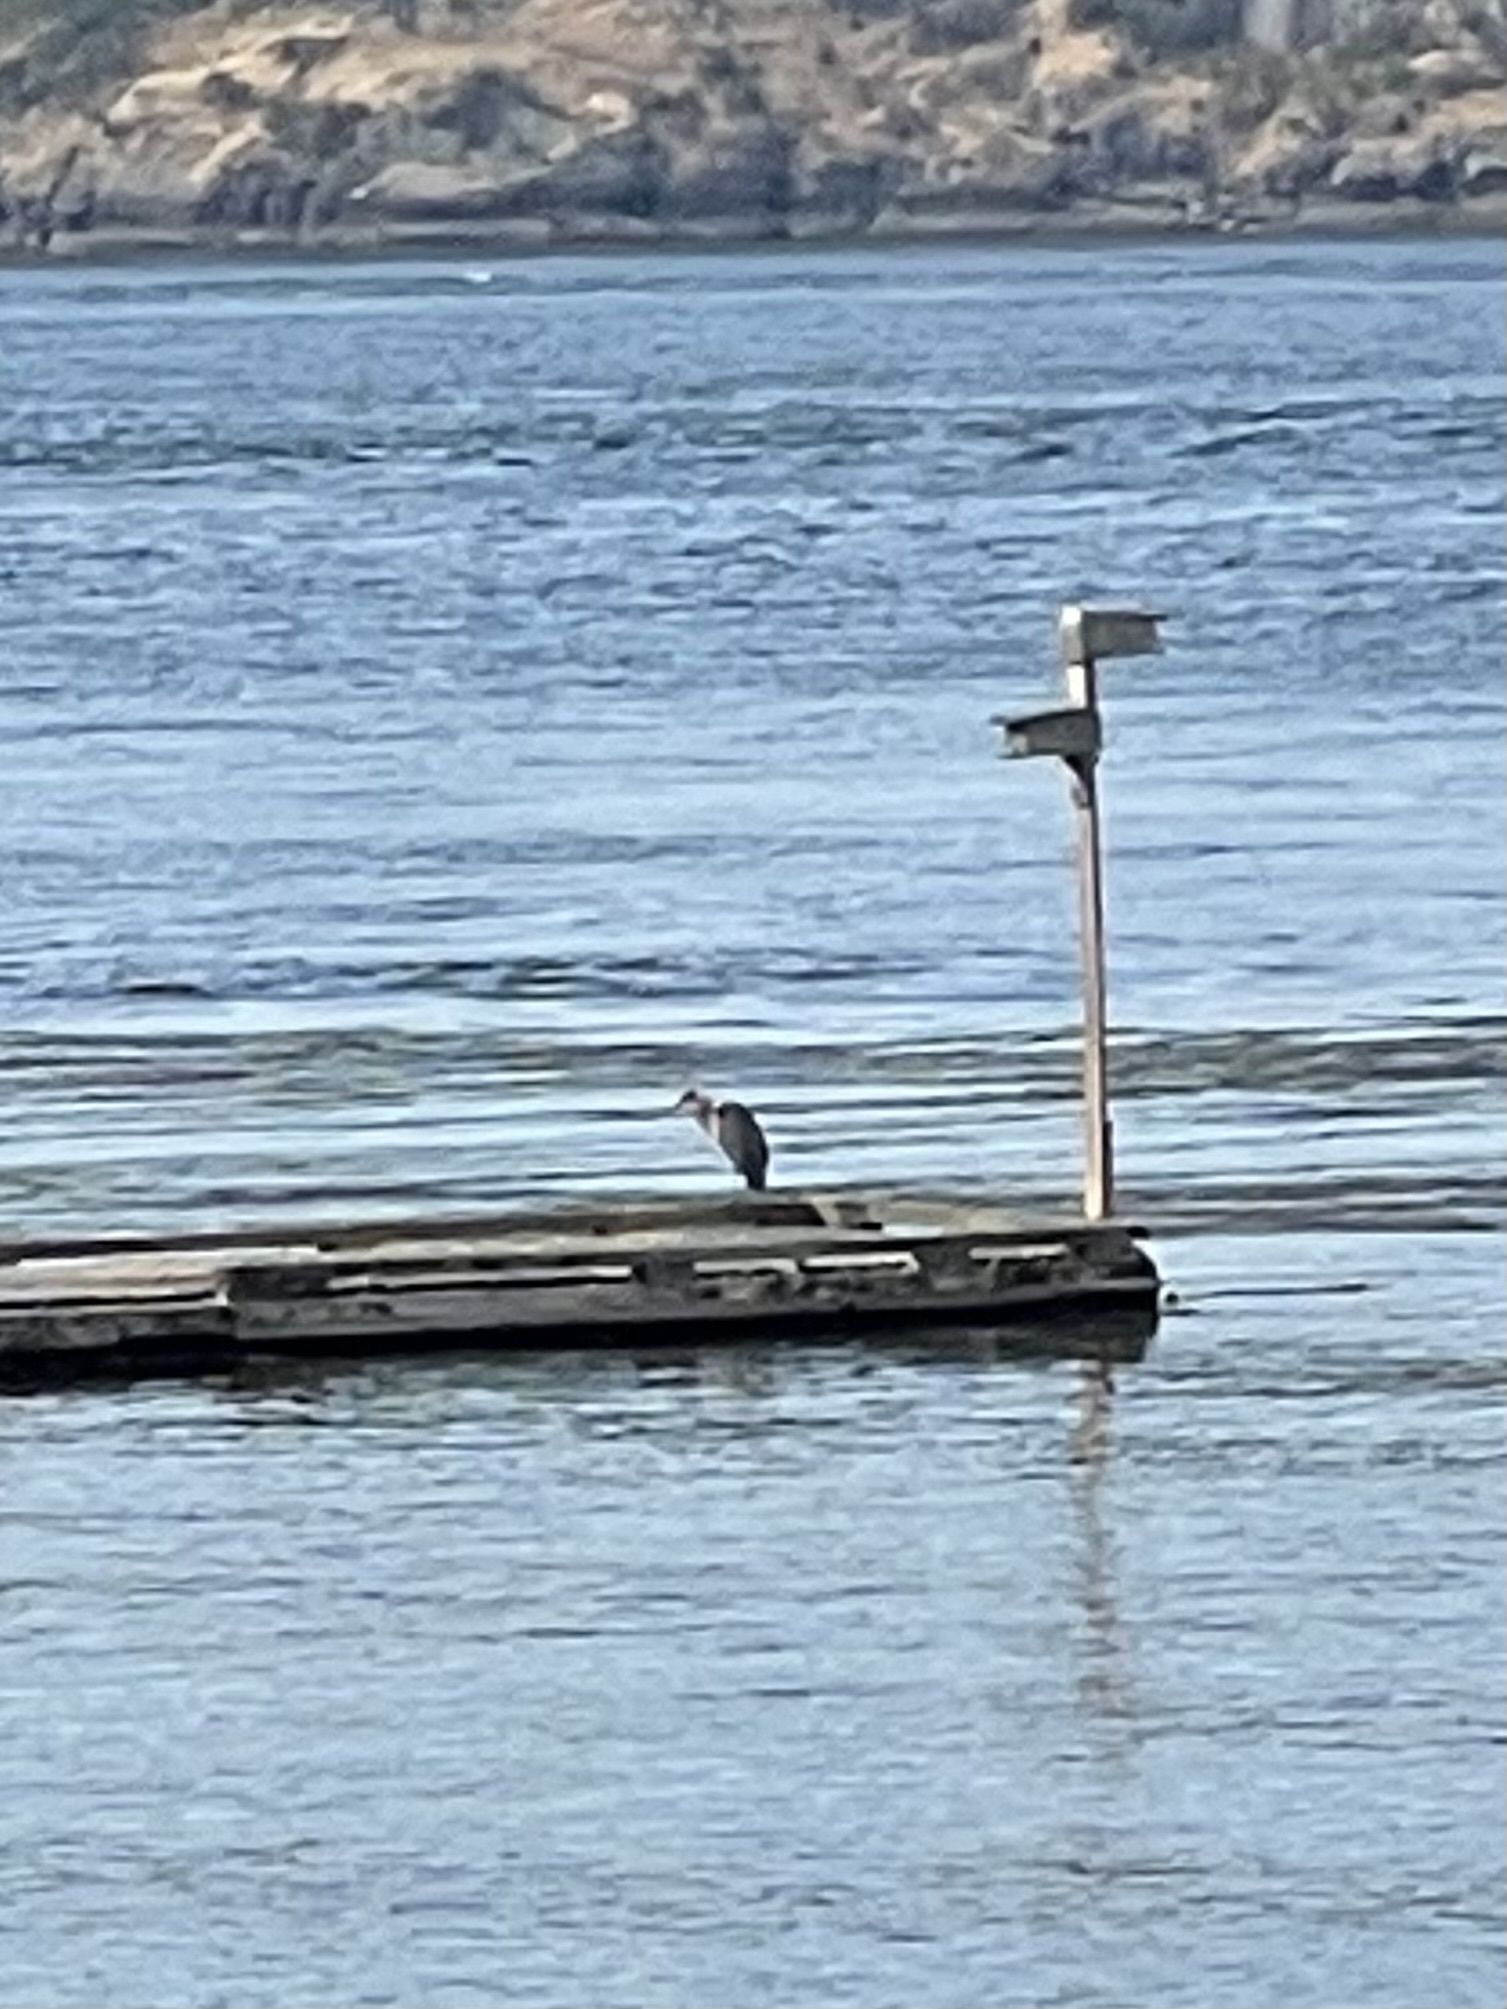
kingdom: Animalia
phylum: Chordata
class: Aves
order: Pelecaniformes
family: Ardeidae
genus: Ardea
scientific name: Ardea herodias
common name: Great blue heron
